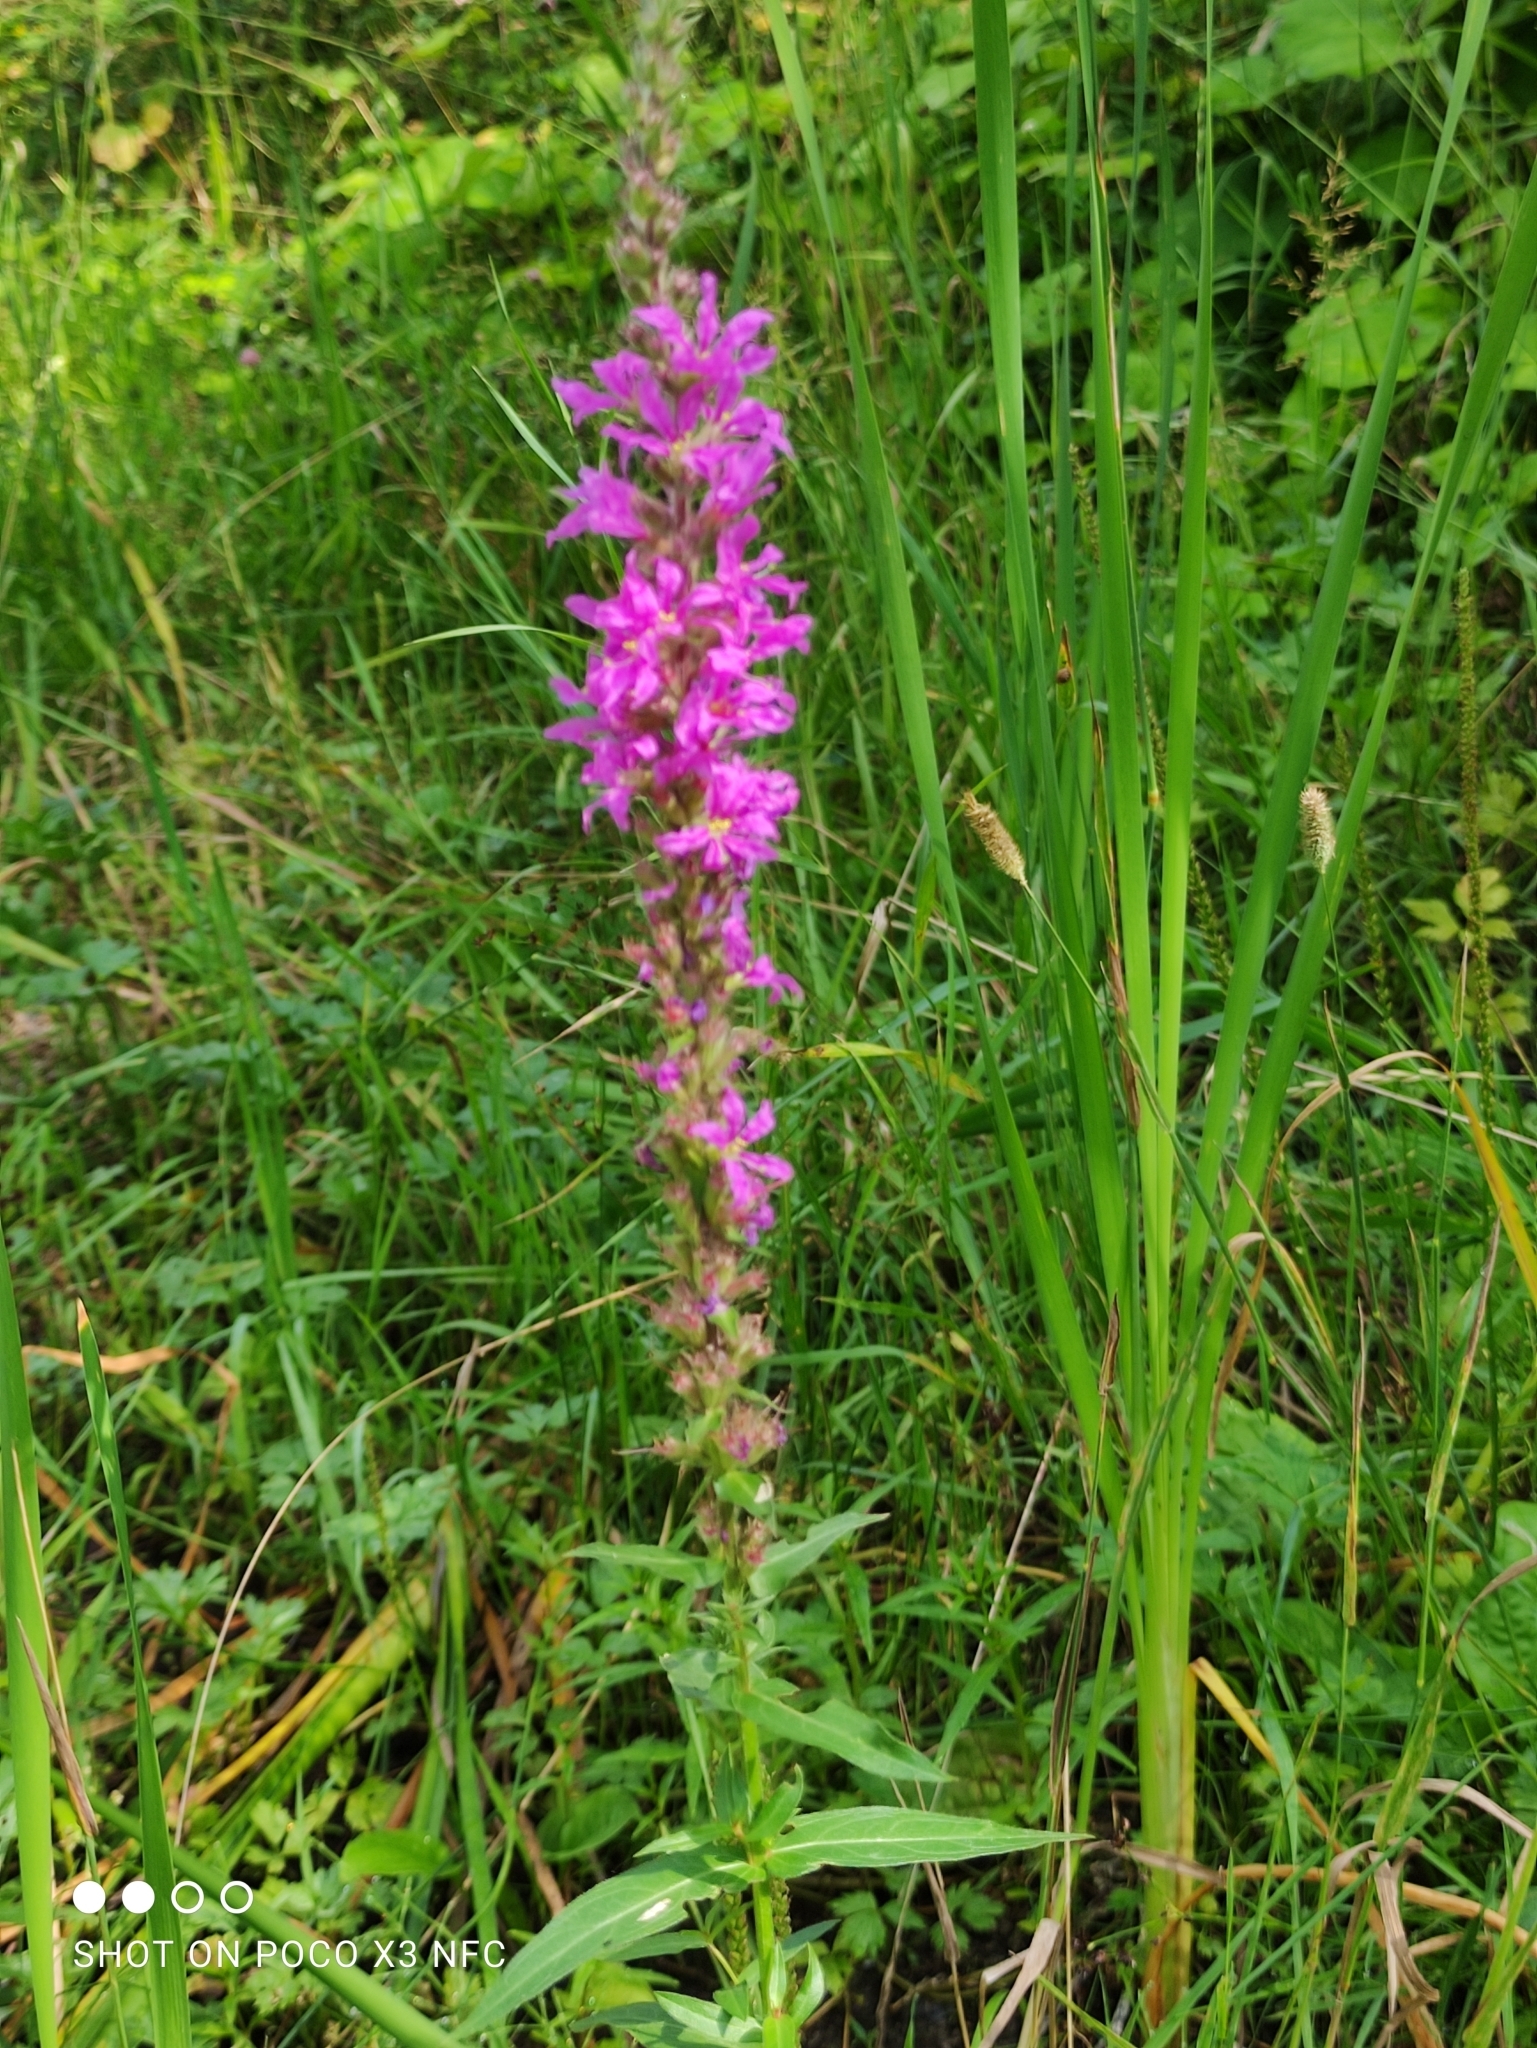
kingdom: Plantae
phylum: Tracheophyta
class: Magnoliopsida
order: Myrtales
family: Lythraceae
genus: Lythrum
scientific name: Lythrum salicaria
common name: Purple loosestrife
